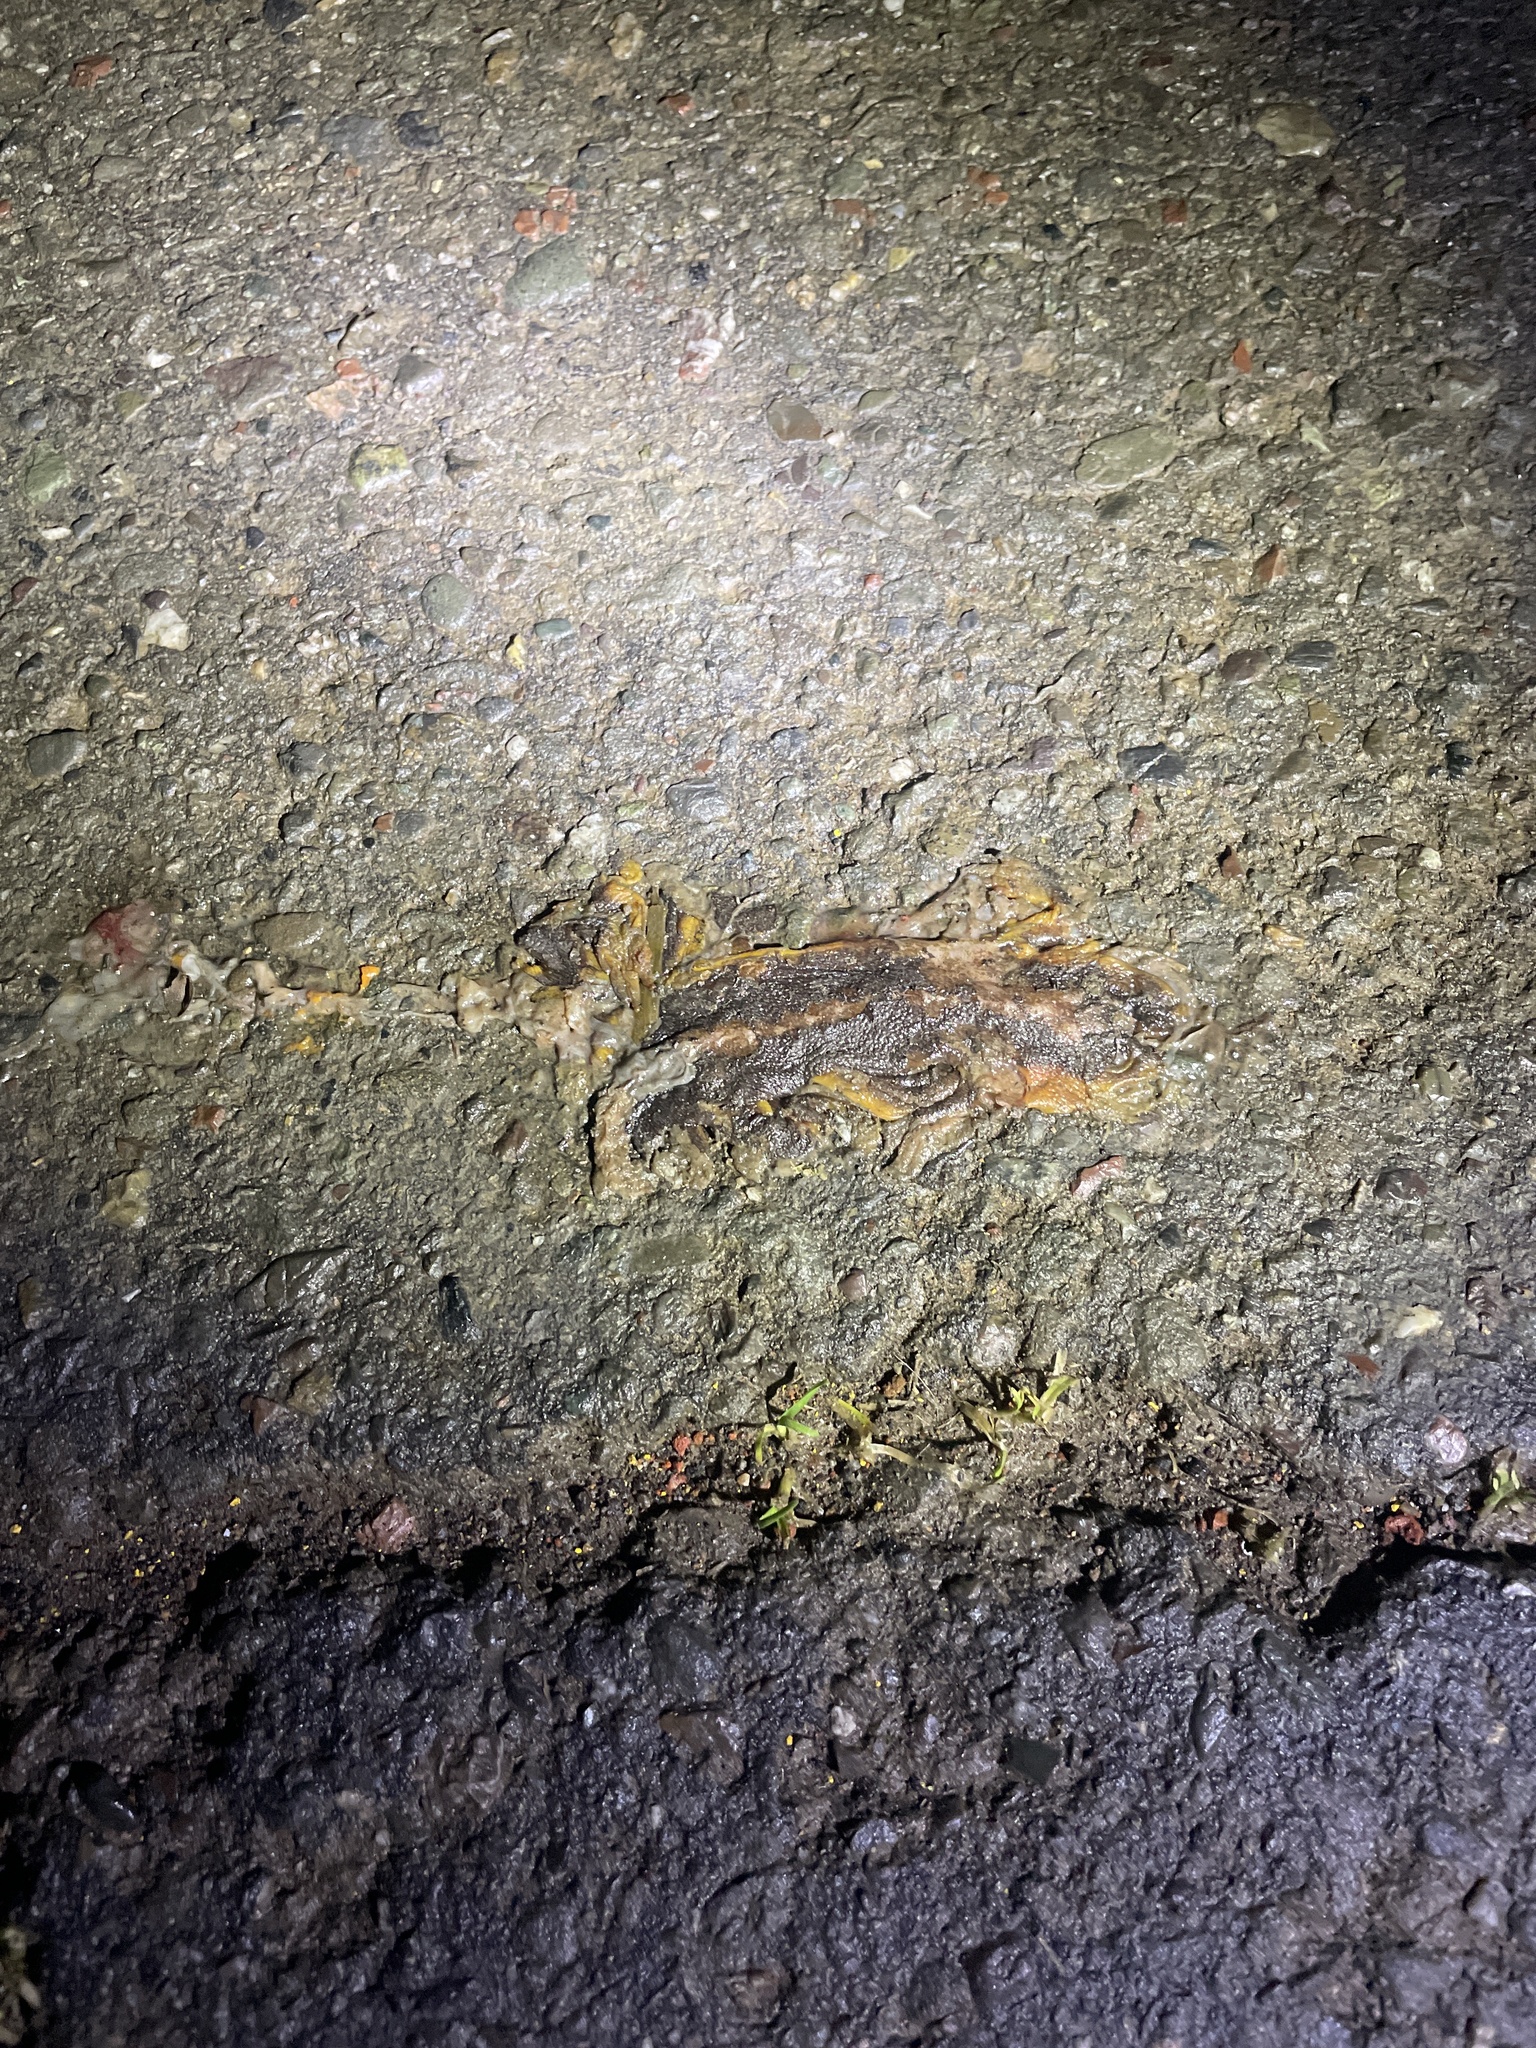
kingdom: Animalia
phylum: Chordata
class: Amphibia
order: Caudata
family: Salamandridae
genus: Taricha
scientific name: Taricha
